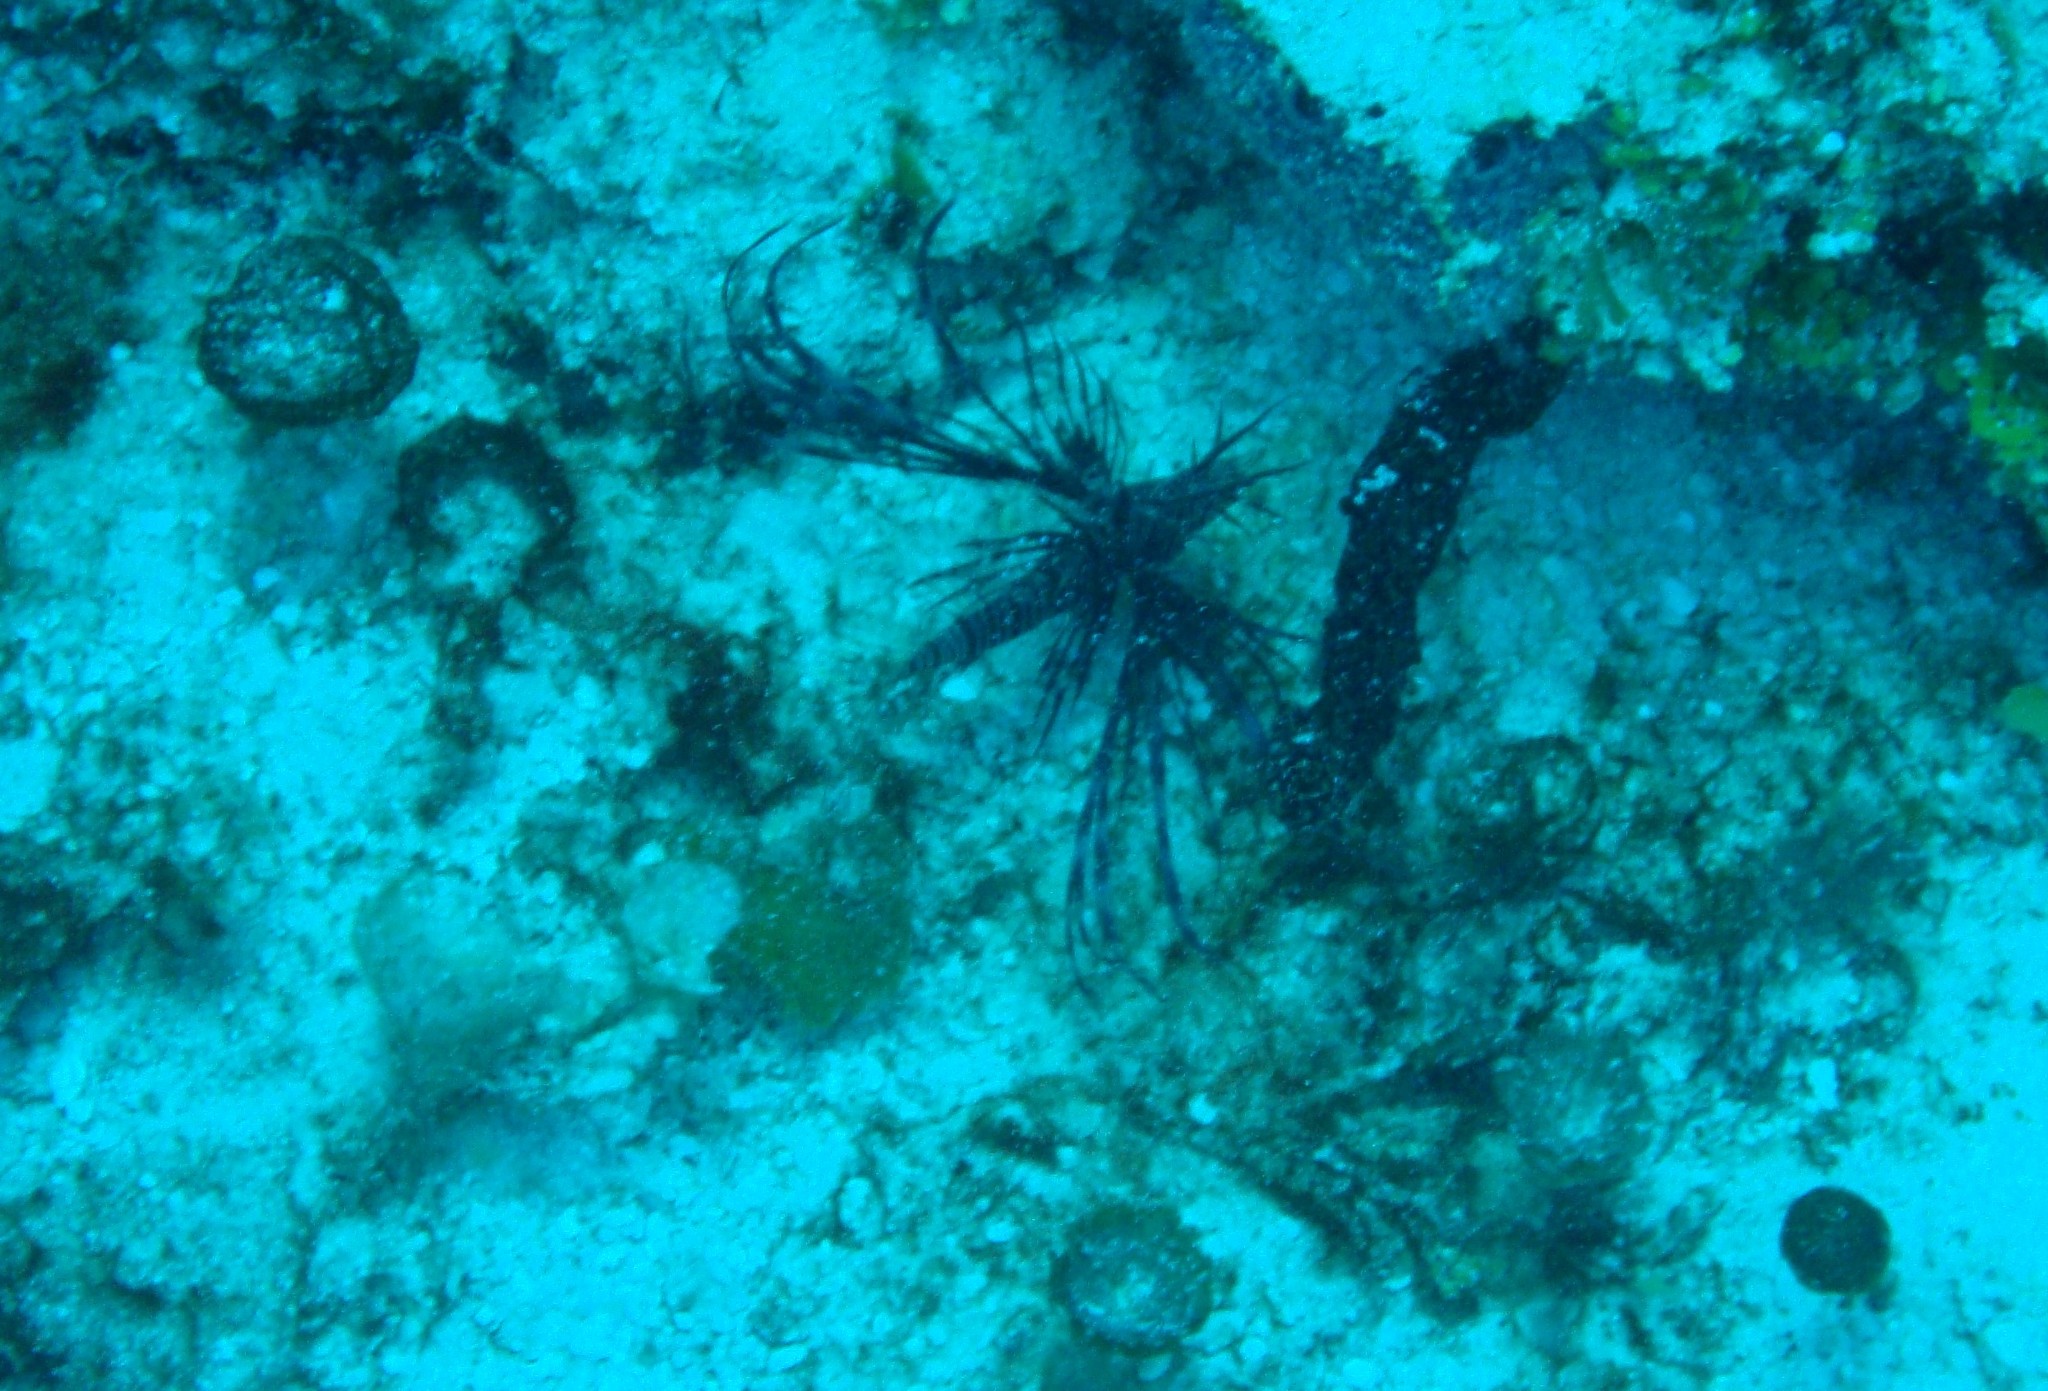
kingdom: Animalia
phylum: Chordata
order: Scorpaeniformes
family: Scorpaenidae
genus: Pterois
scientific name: Pterois volitans
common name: Lionfish
